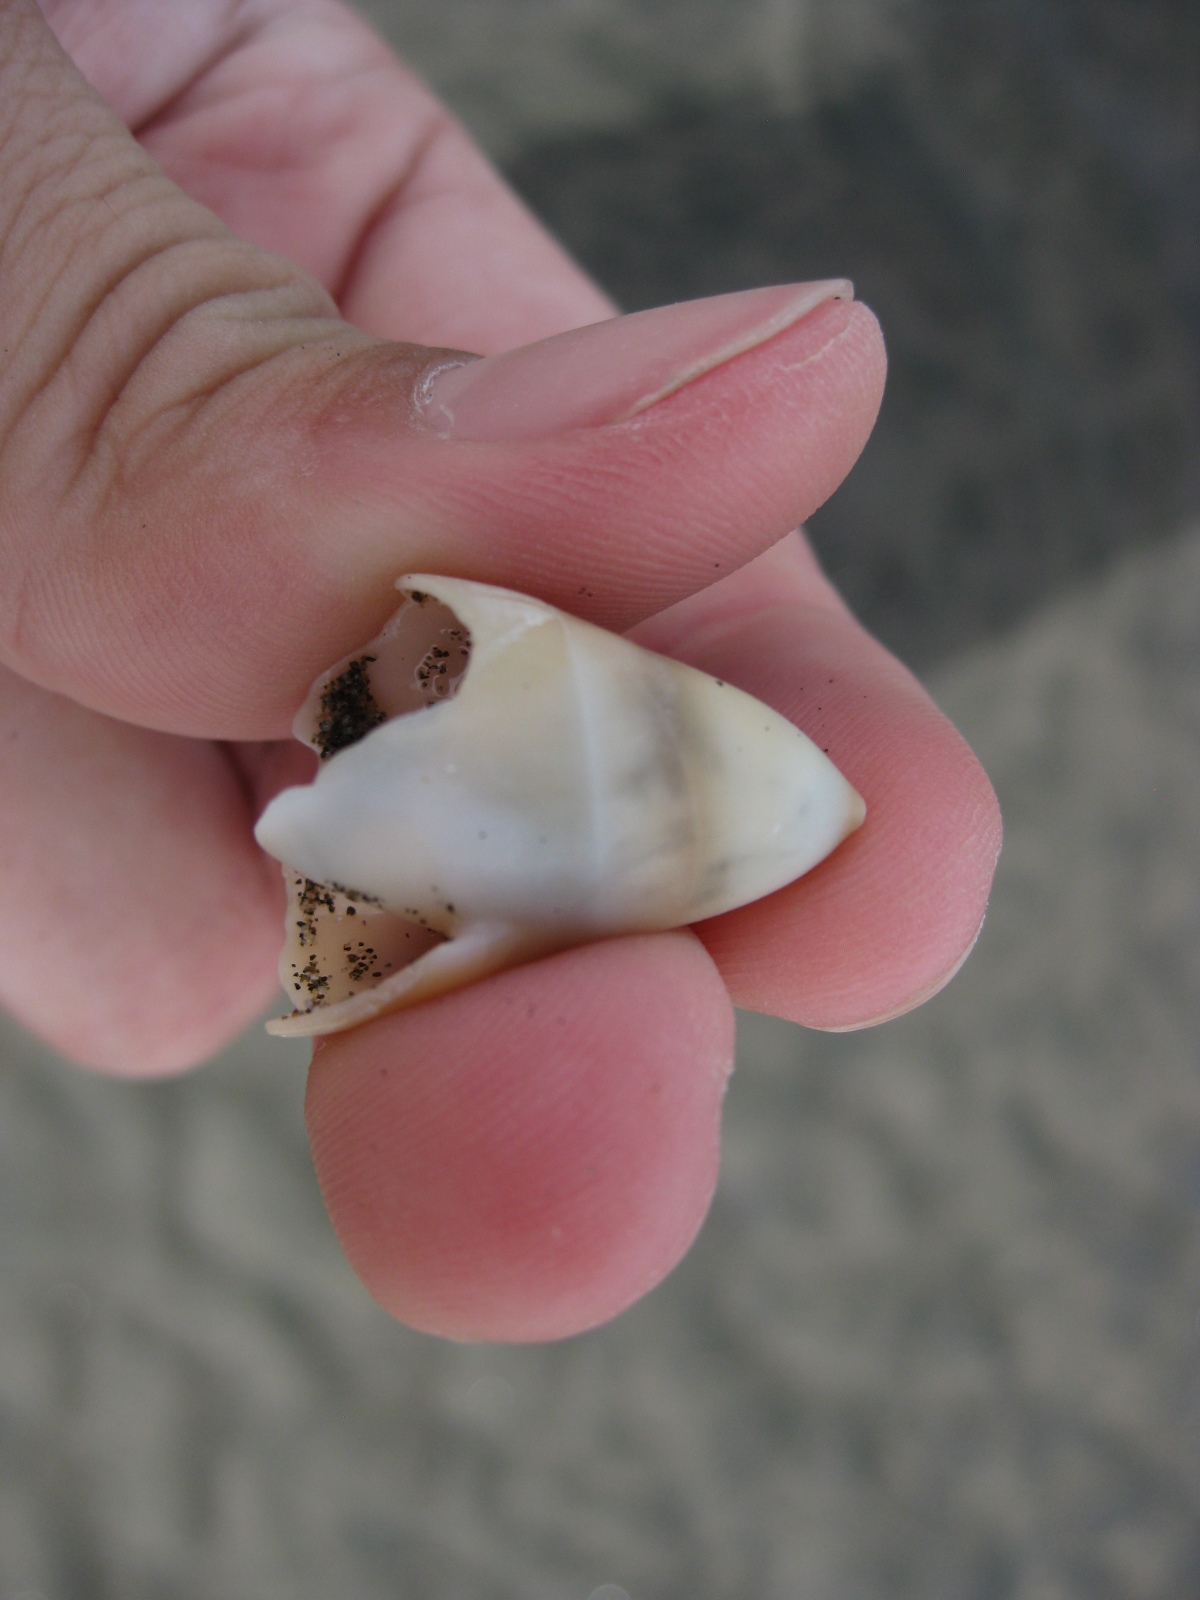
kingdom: Animalia
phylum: Mollusca
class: Gastropoda
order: Neogastropoda
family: Ancillariidae
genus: Amalda
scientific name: Amalda mucronata
